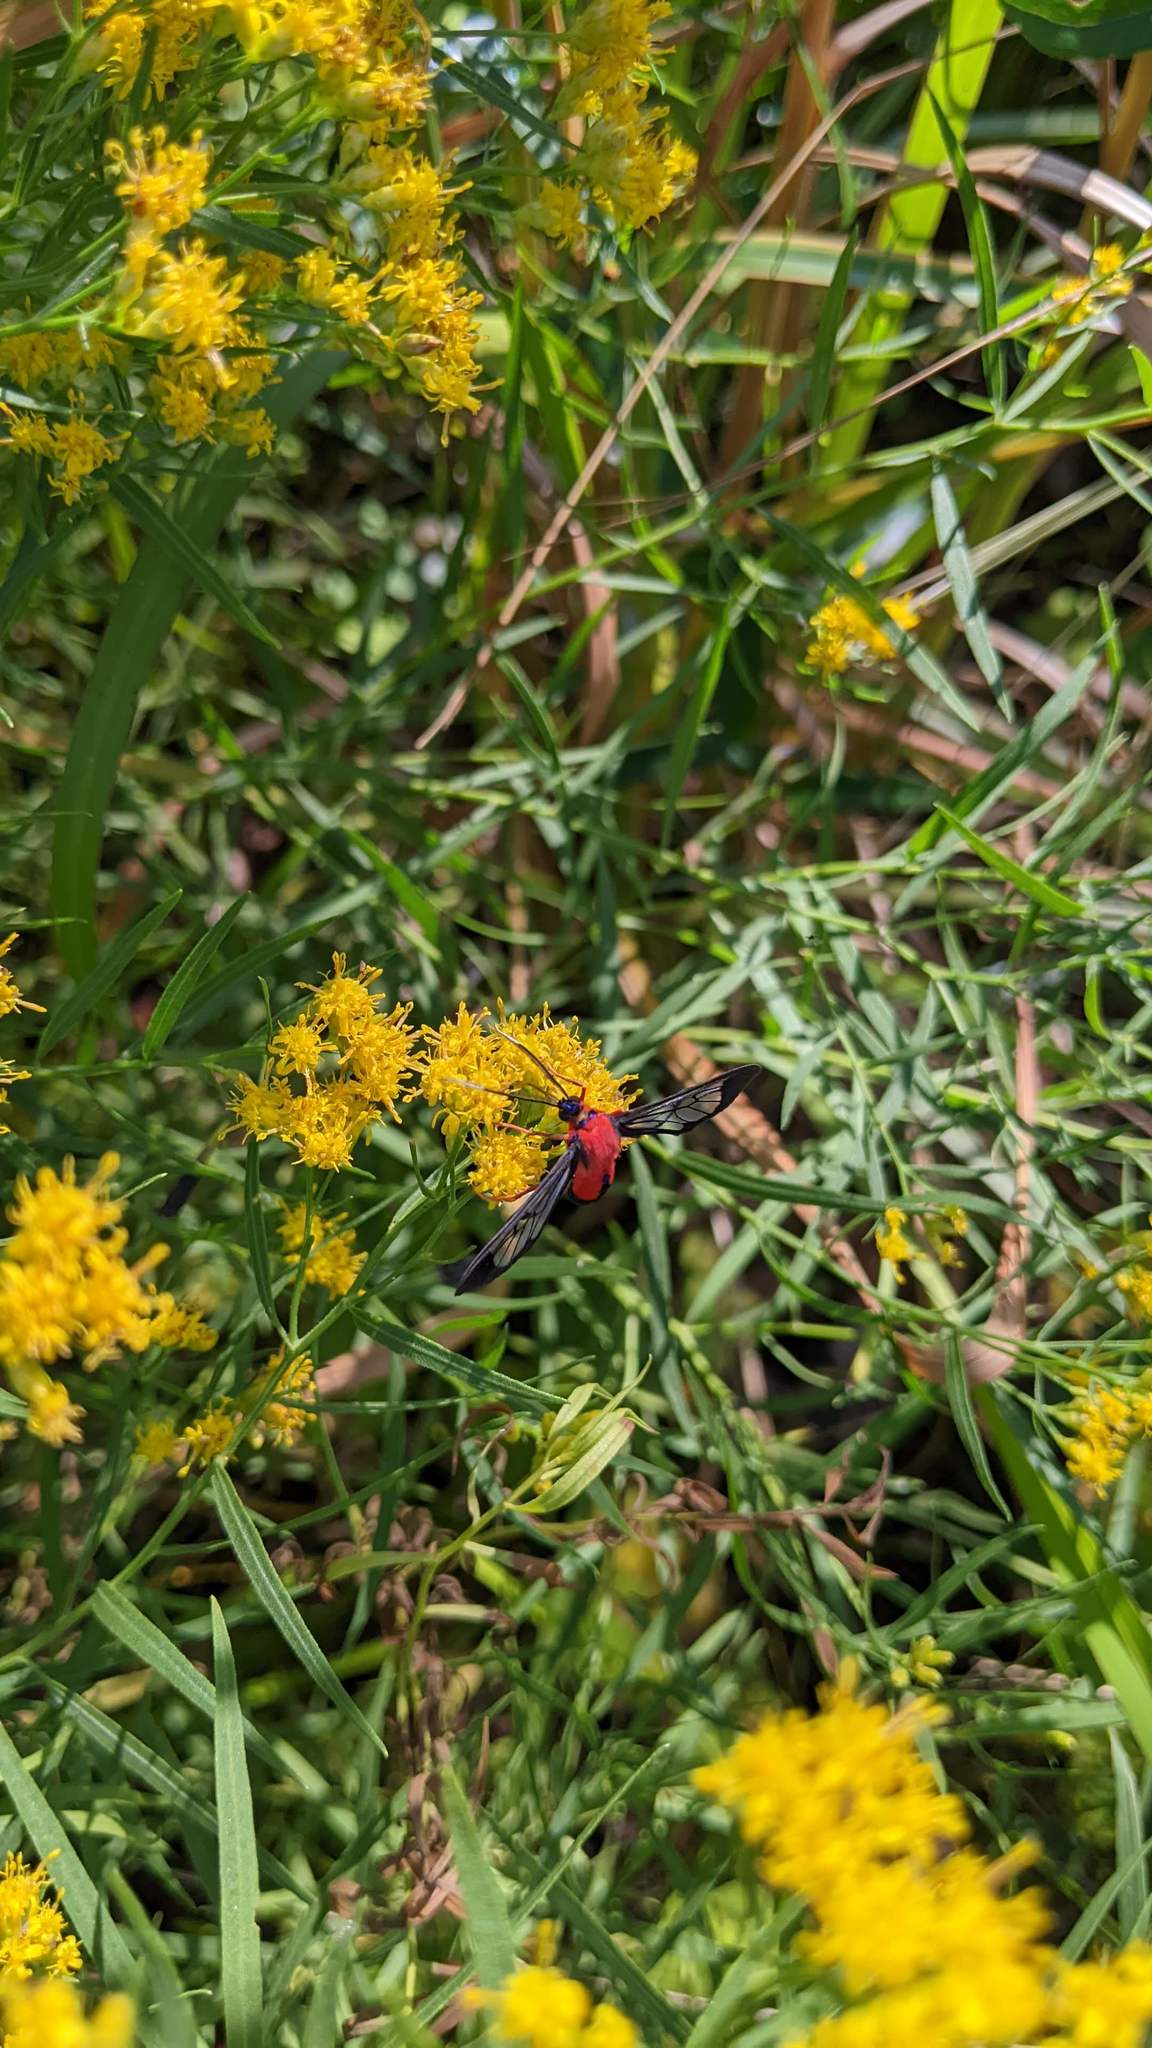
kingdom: Animalia
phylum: Arthropoda
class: Insecta
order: Lepidoptera
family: Erebidae
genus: Cosmosoma
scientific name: Cosmosoma myrodora
